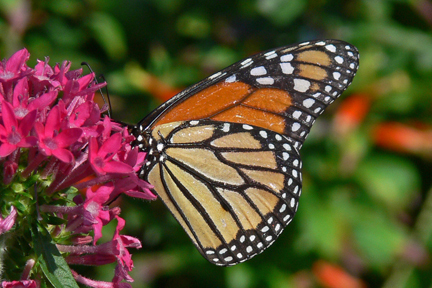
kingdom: Animalia
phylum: Arthropoda
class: Insecta
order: Lepidoptera
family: Nymphalidae
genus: Danaus
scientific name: Danaus plexippus
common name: Monarch
